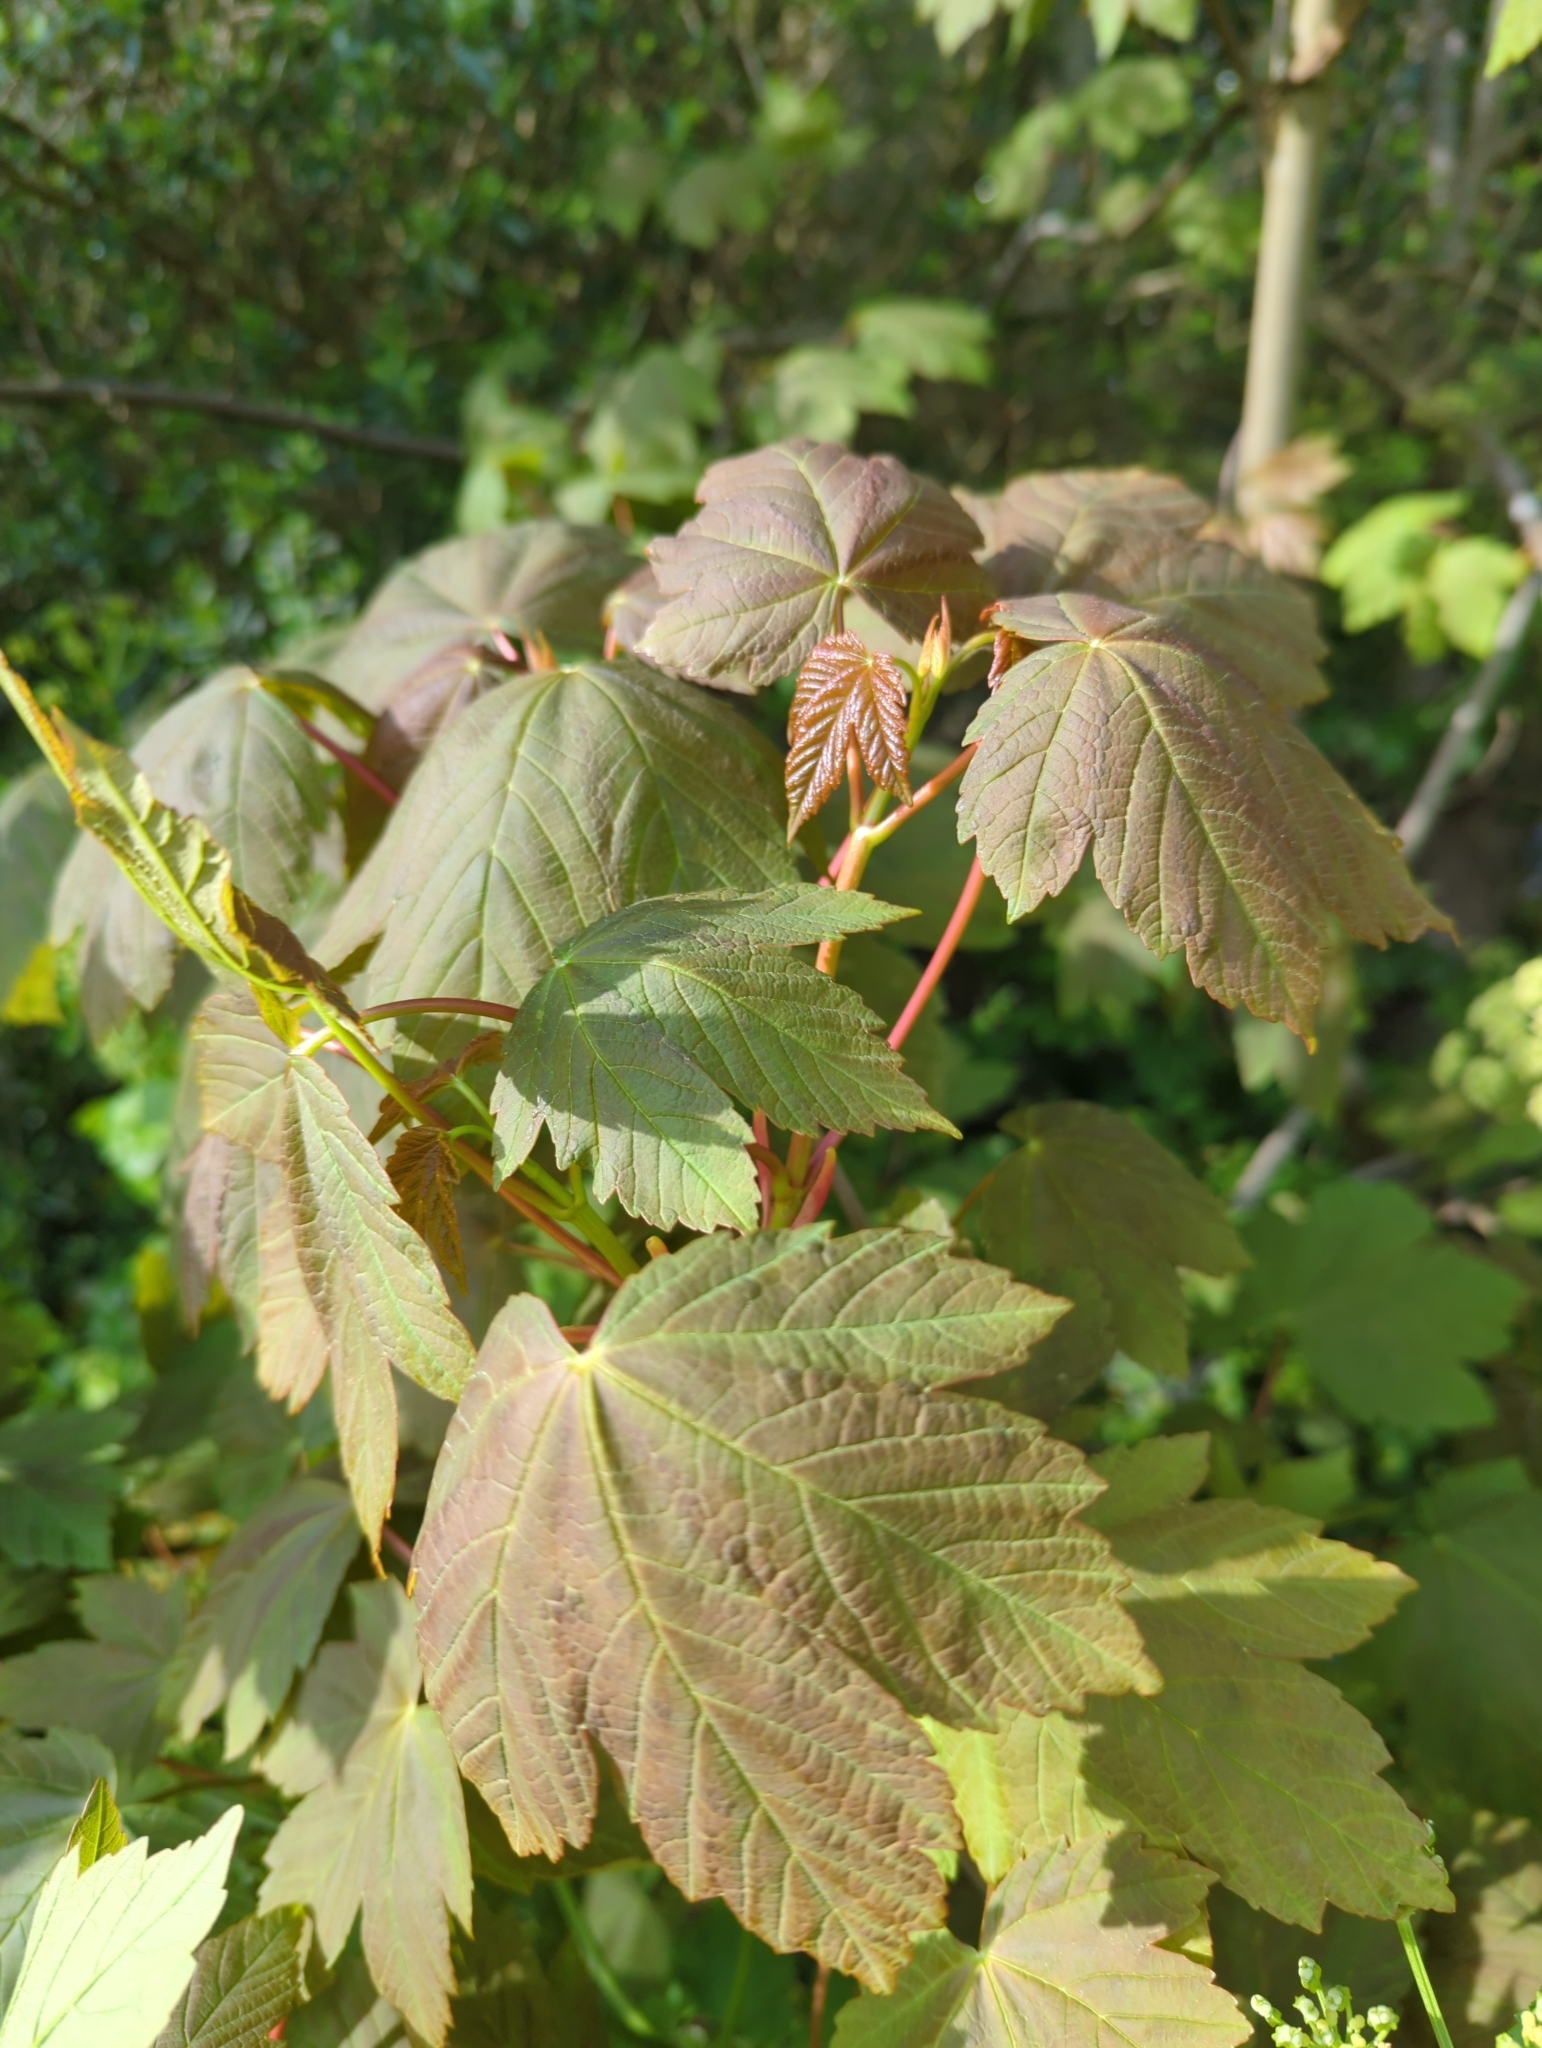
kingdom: Plantae
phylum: Tracheophyta
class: Magnoliopsida
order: Sapindales
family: Sapindaceae
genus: Acer
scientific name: Acer pseudoplatanus
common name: Sycamore
